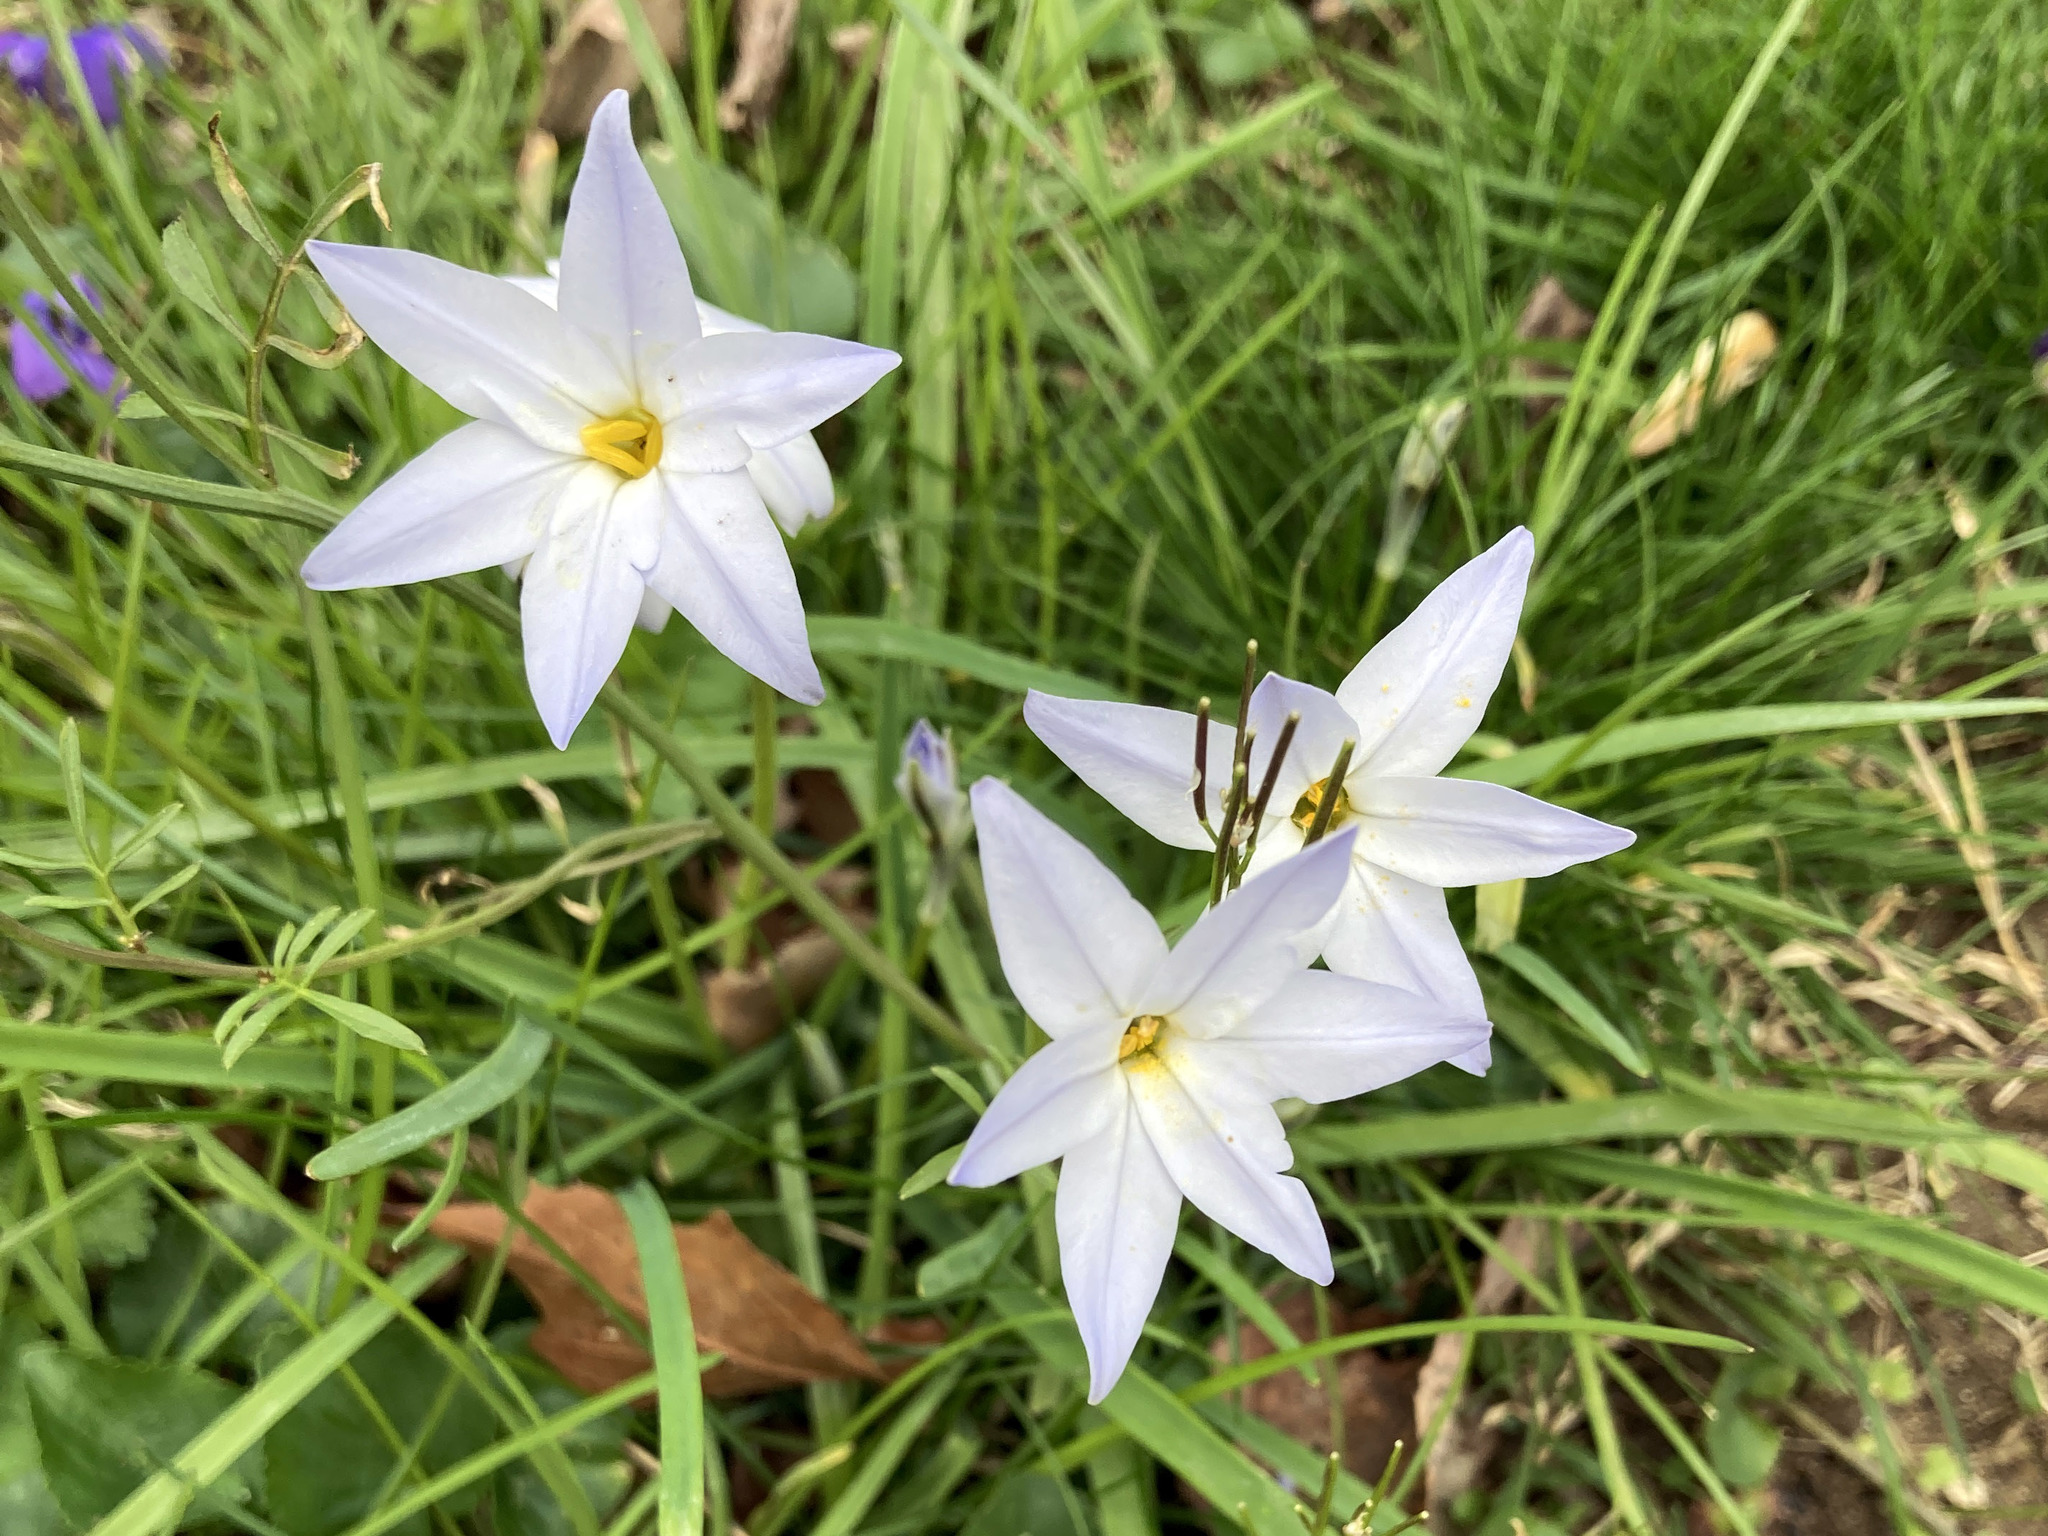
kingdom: Plantae
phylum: Tracheophyta
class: Liliopsida
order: Asparagales
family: Amaryllidaceae
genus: Ipheion
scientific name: Ipheion uniflorum
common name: Spring starflower
